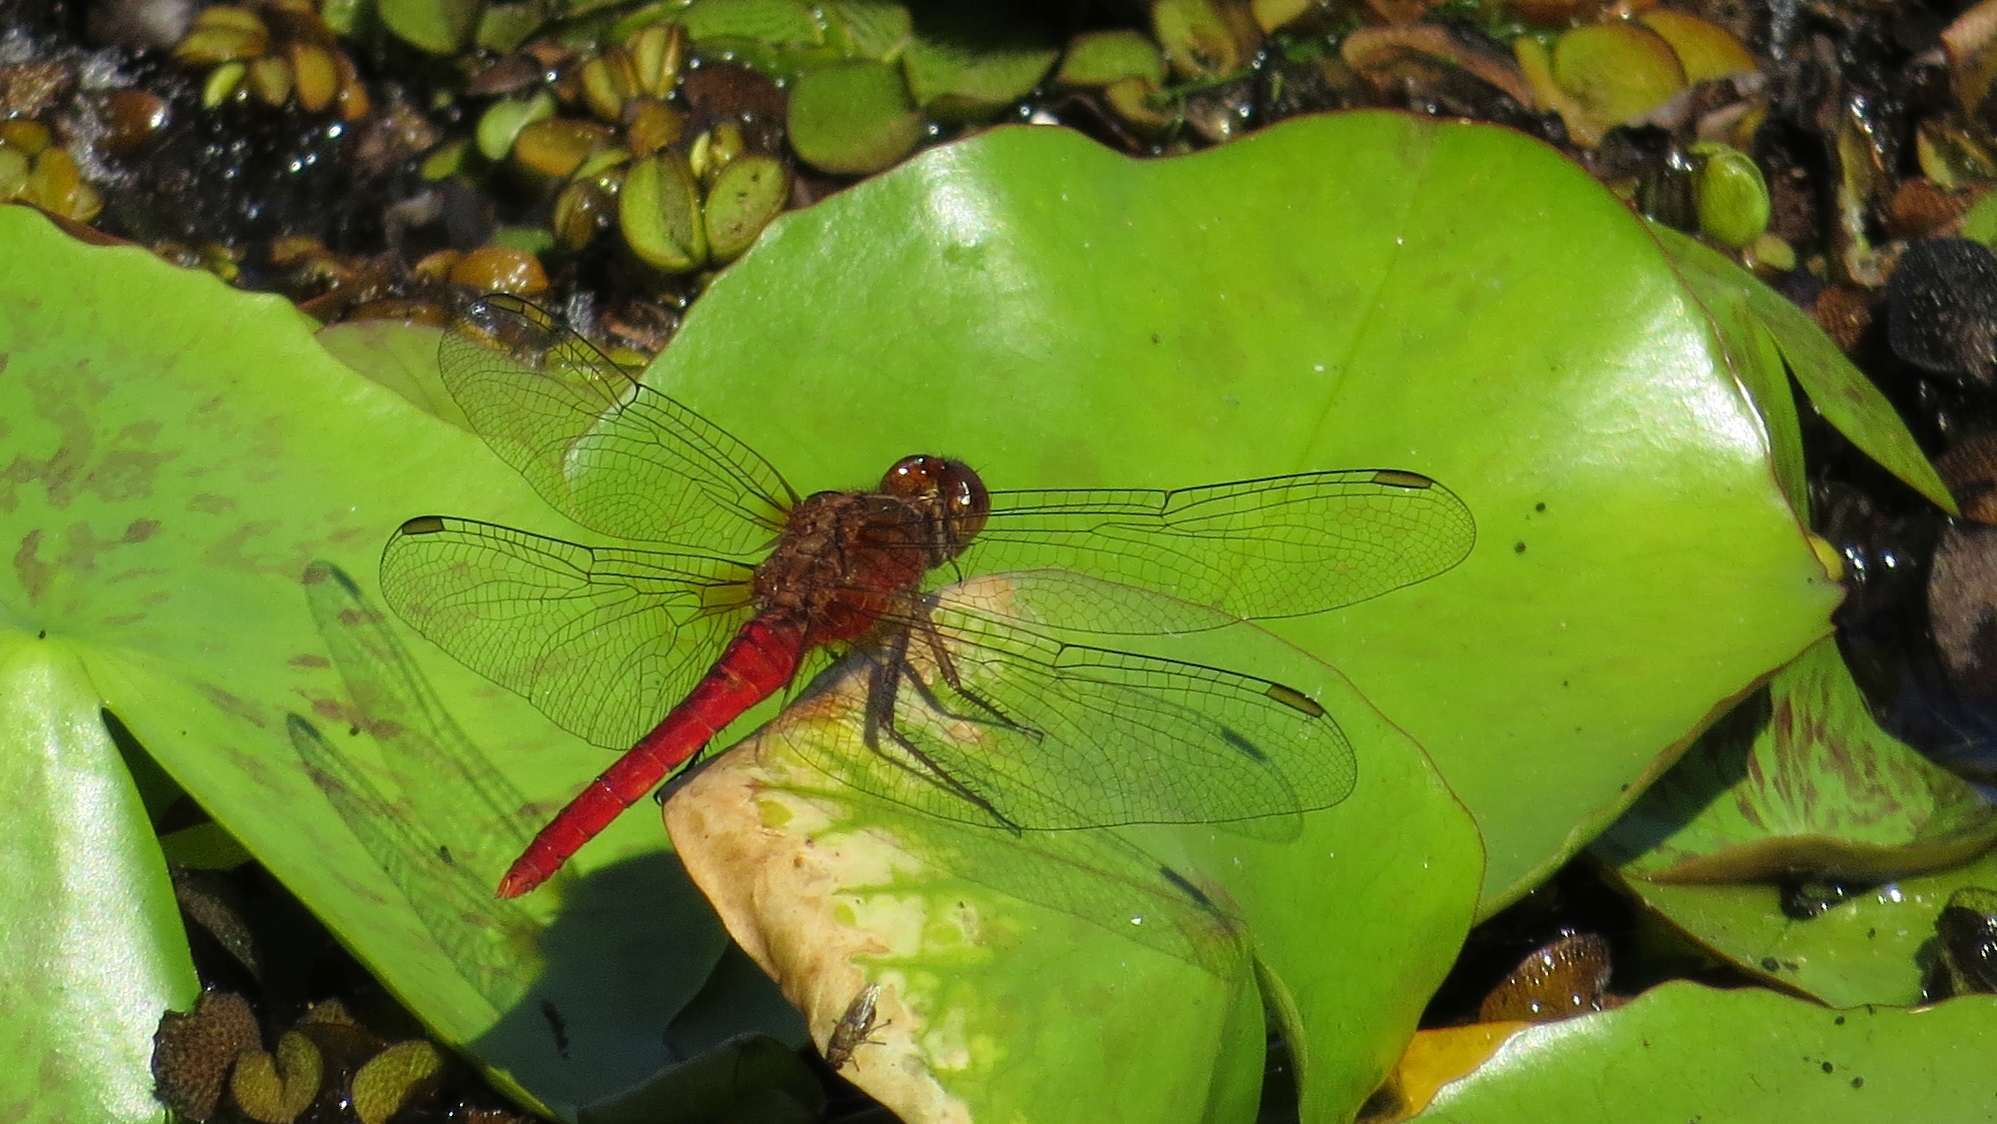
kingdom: Animalia
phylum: Arthropoda
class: Insecta
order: Odonata
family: Libellulidae
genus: Rhodothemis
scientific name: Rhodothemis lieftincki
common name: Red arrow
